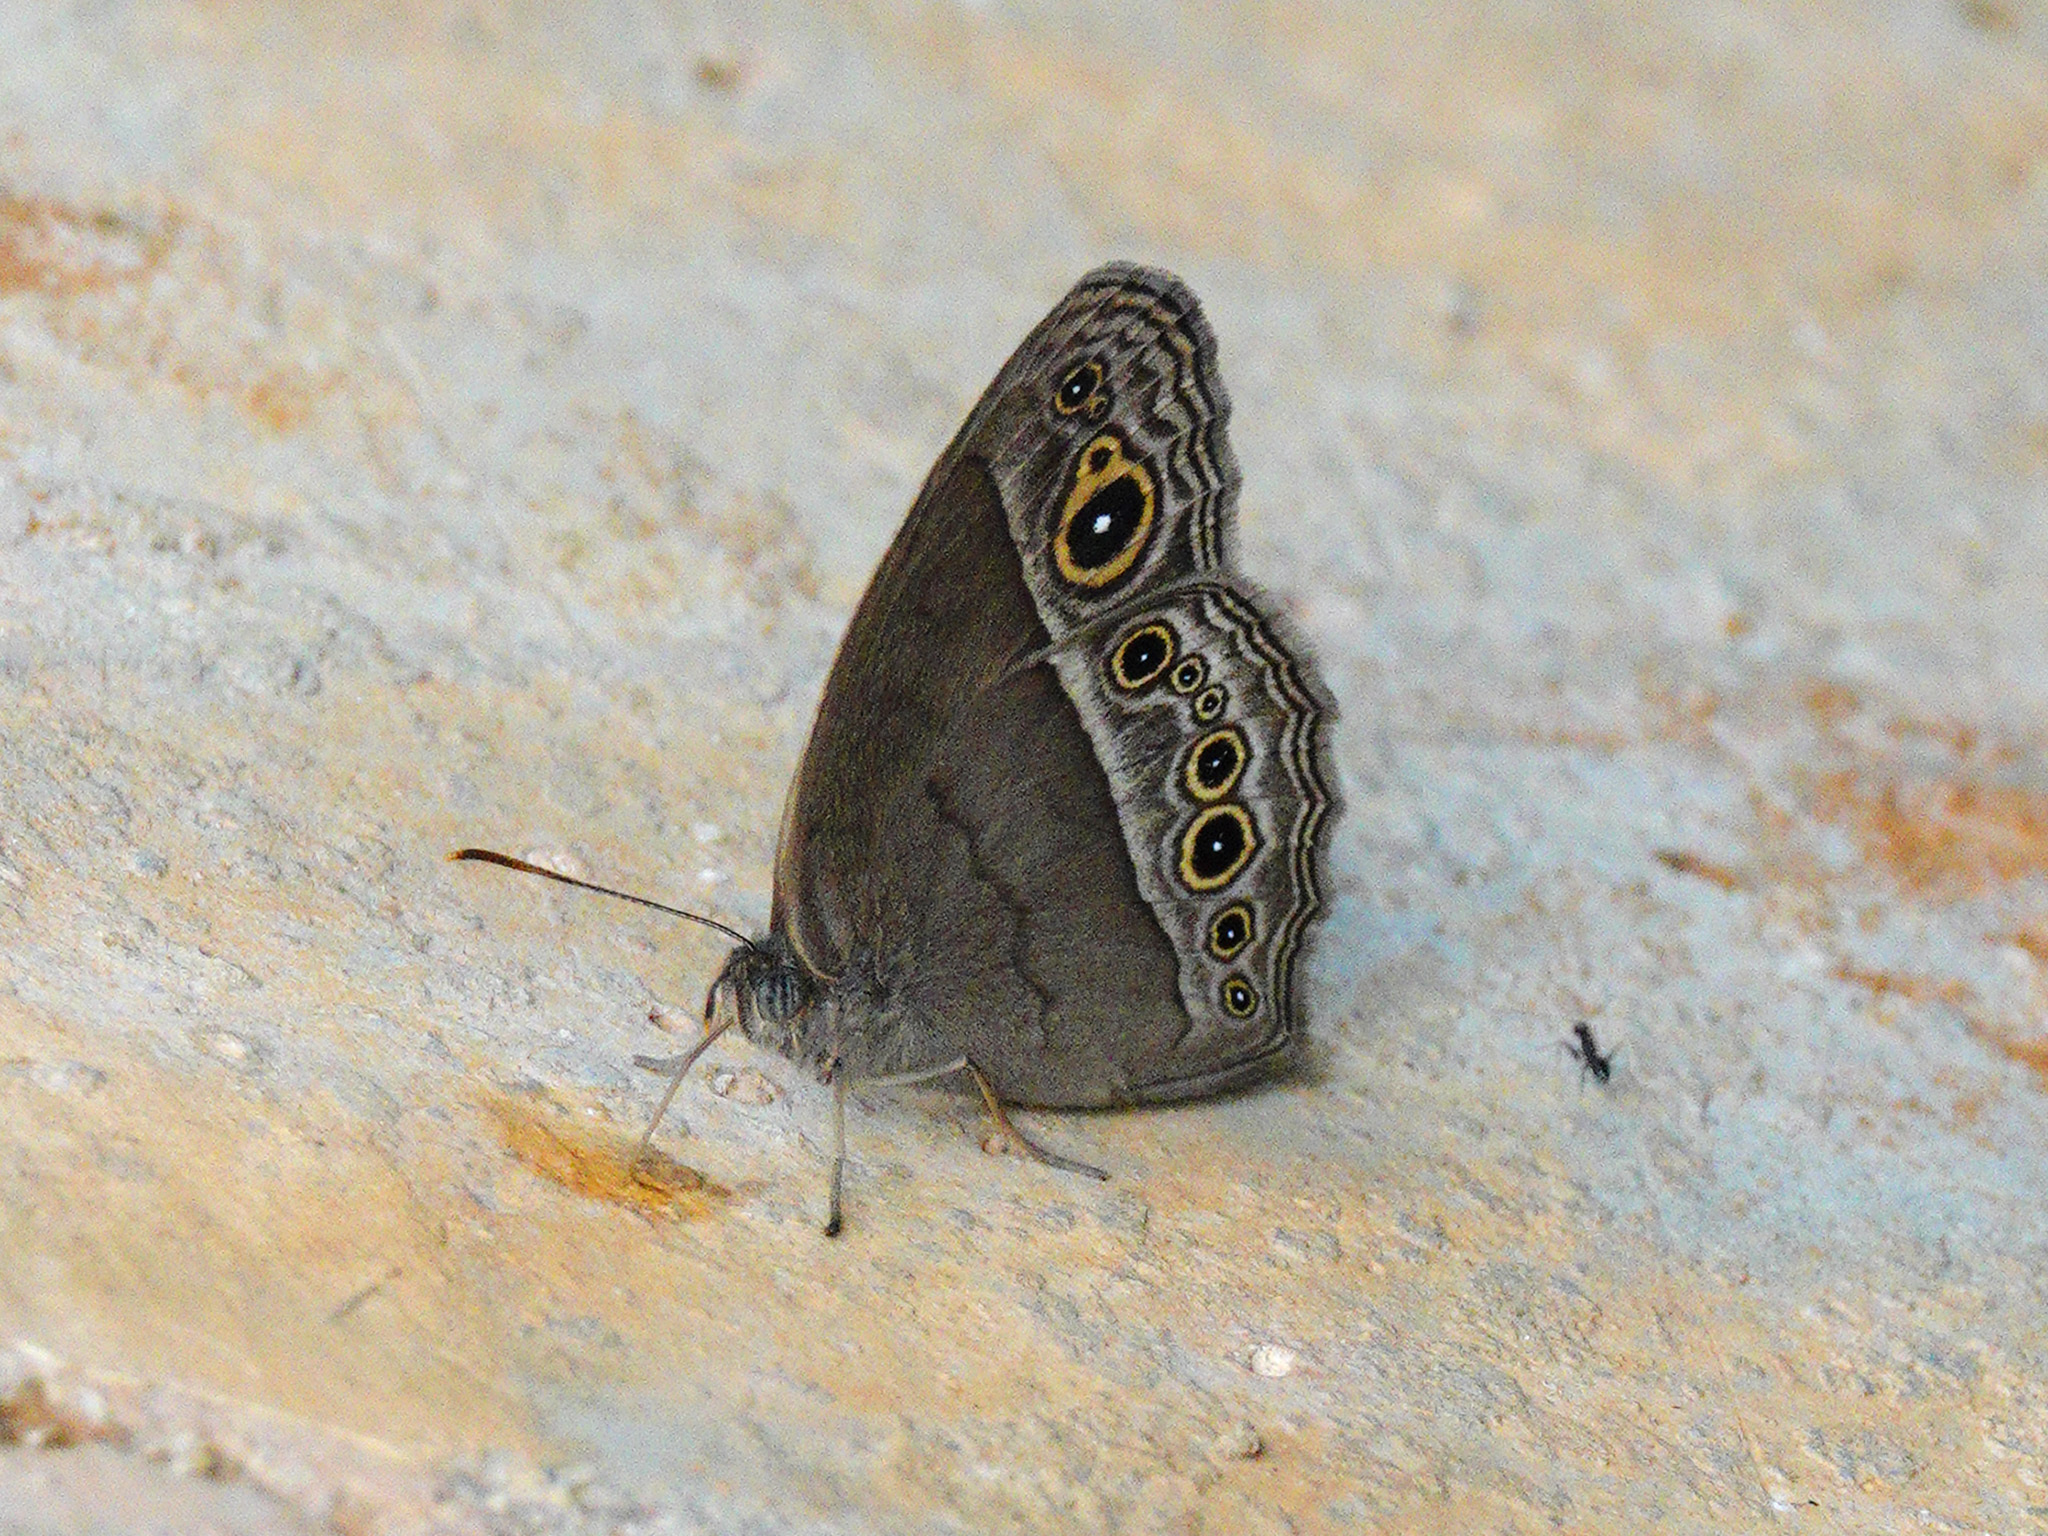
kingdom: Animalia
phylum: Arthropoda
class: Insecta
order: Lepidoptera
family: Nymphalidae
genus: Mycalesis
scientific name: Mycalesis perseoides
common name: Burmese bushbrown
